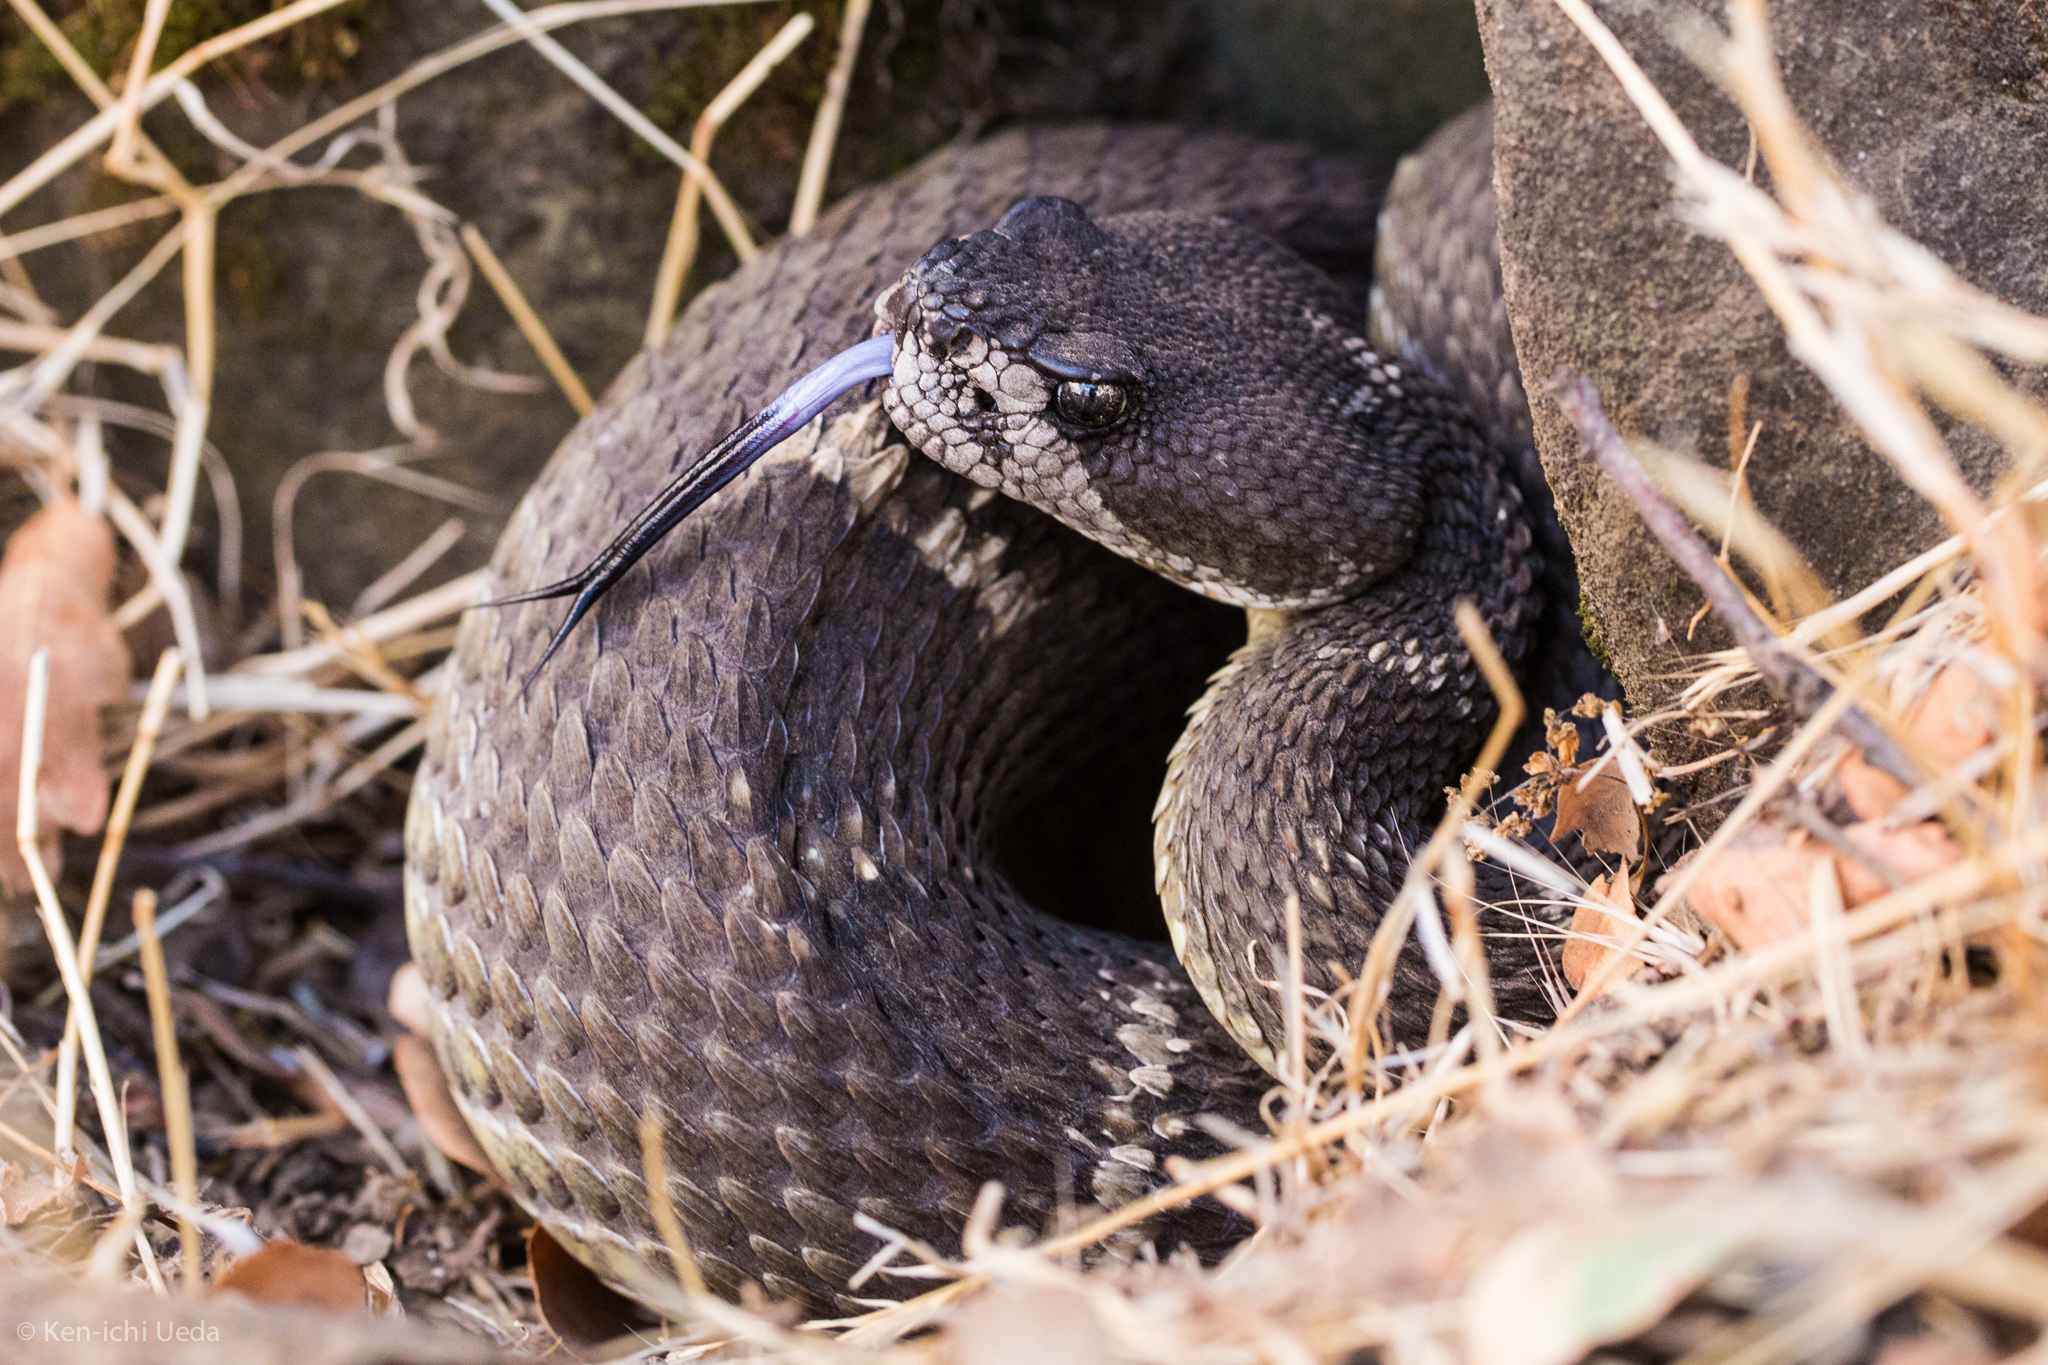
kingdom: Animalia
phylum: Chordata
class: Squamata
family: Viperidae
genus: Crotalus
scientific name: Crotalus oreganus
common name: Abyssus
